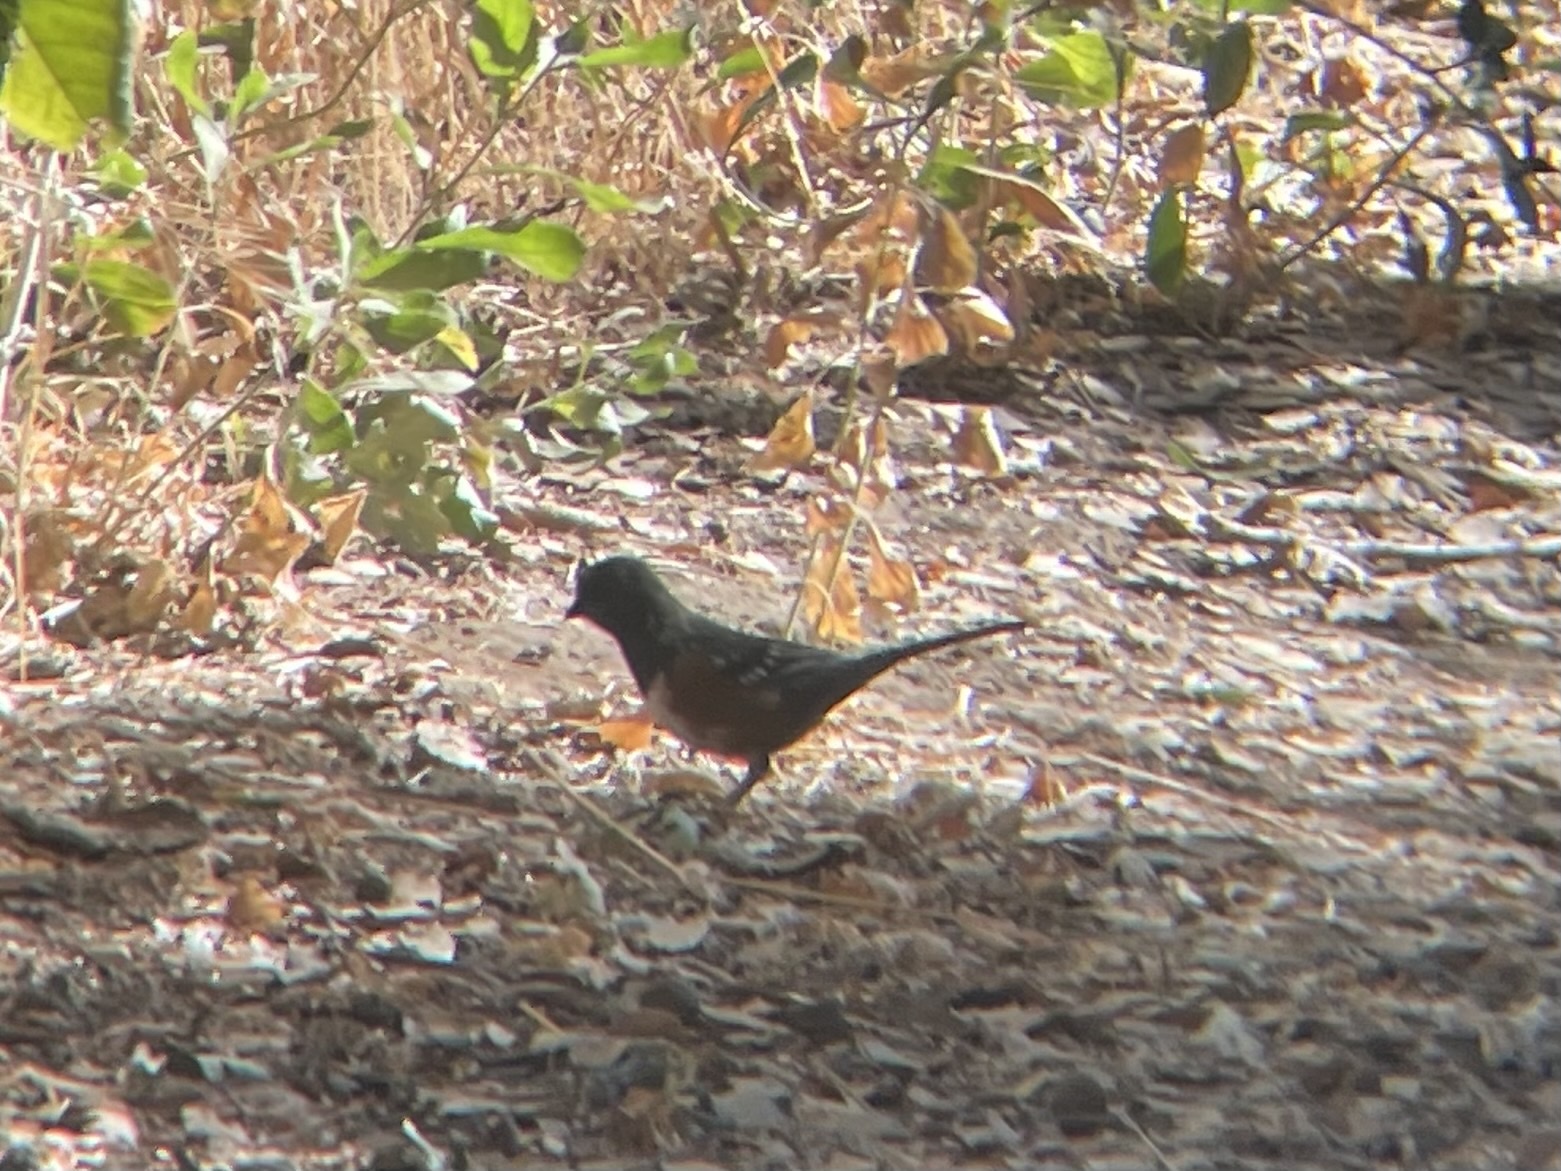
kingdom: Animalia
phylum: Chordata
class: Aves
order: Passeriformes
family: Passerellidae
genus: Pipilo
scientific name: Pipilo maculatus
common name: Spotted towhee
